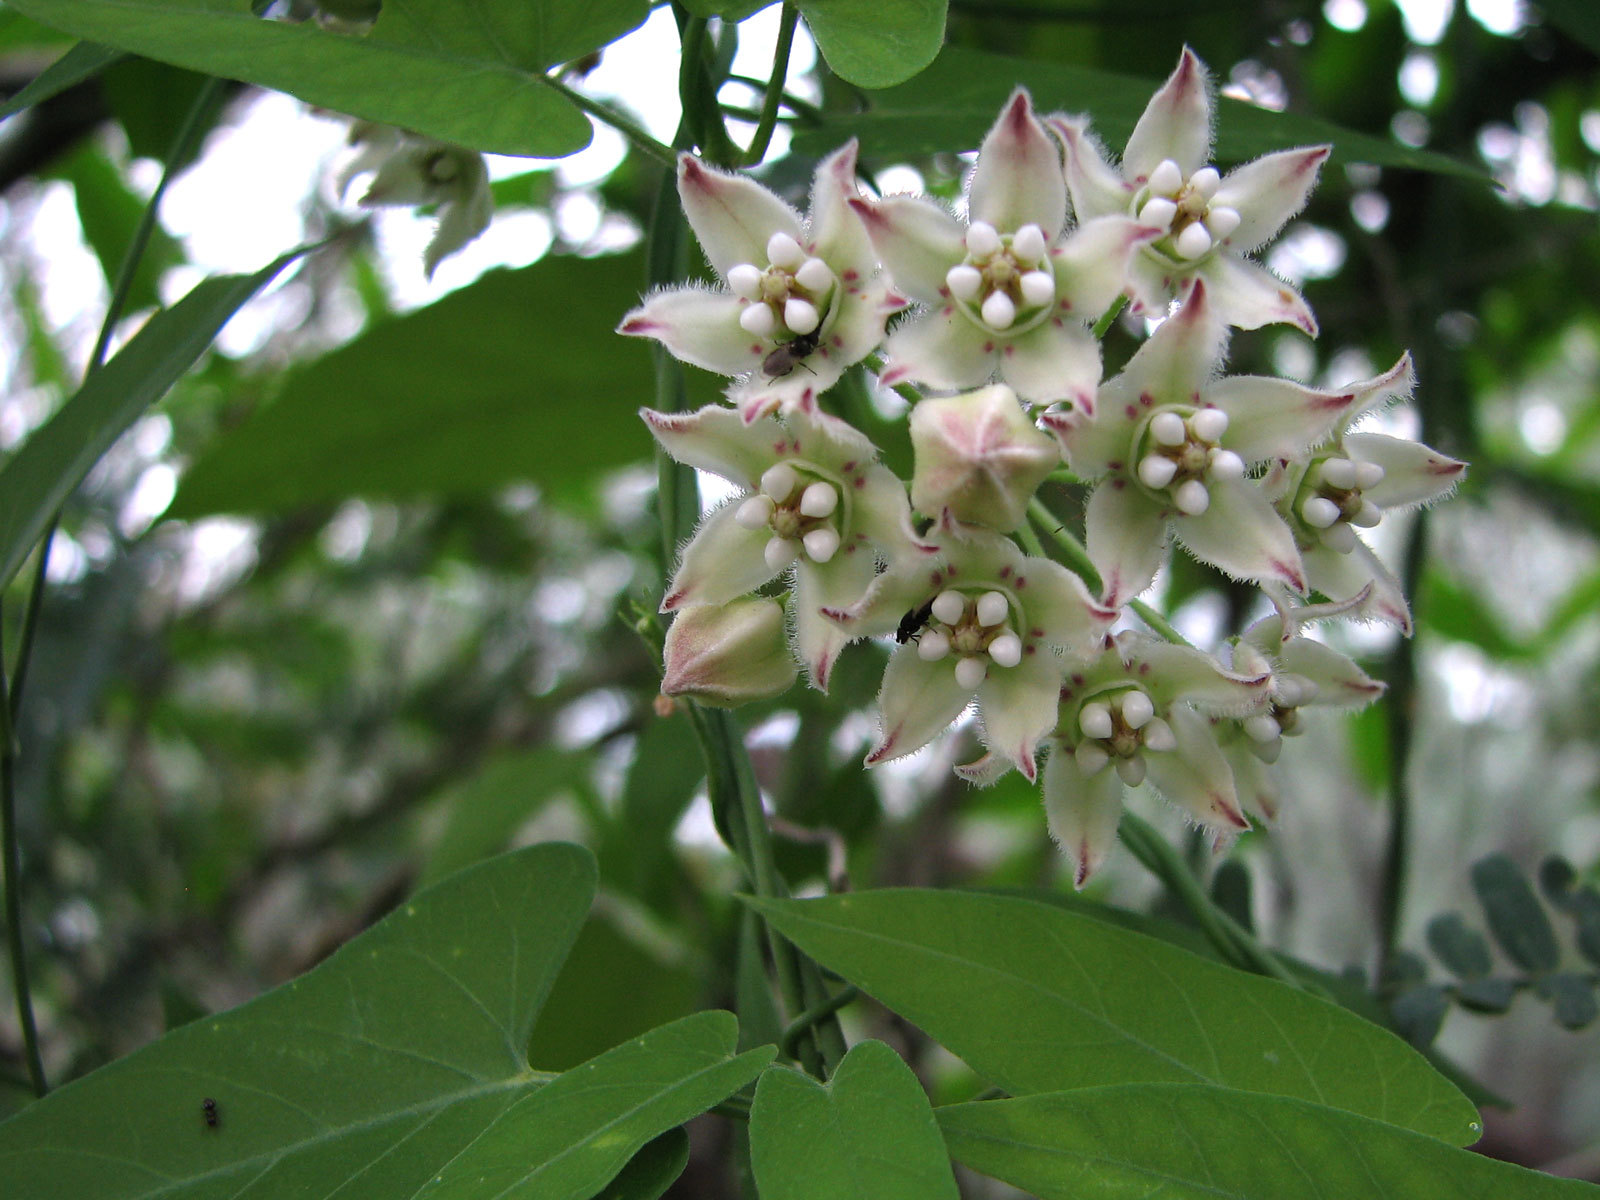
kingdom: Plantae
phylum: Tracheophyta
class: Magnoliopsida
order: Gentianales
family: Apocynaceae
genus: Funastrum
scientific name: Funastrum cynanchoides
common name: Climbing-milkweed
